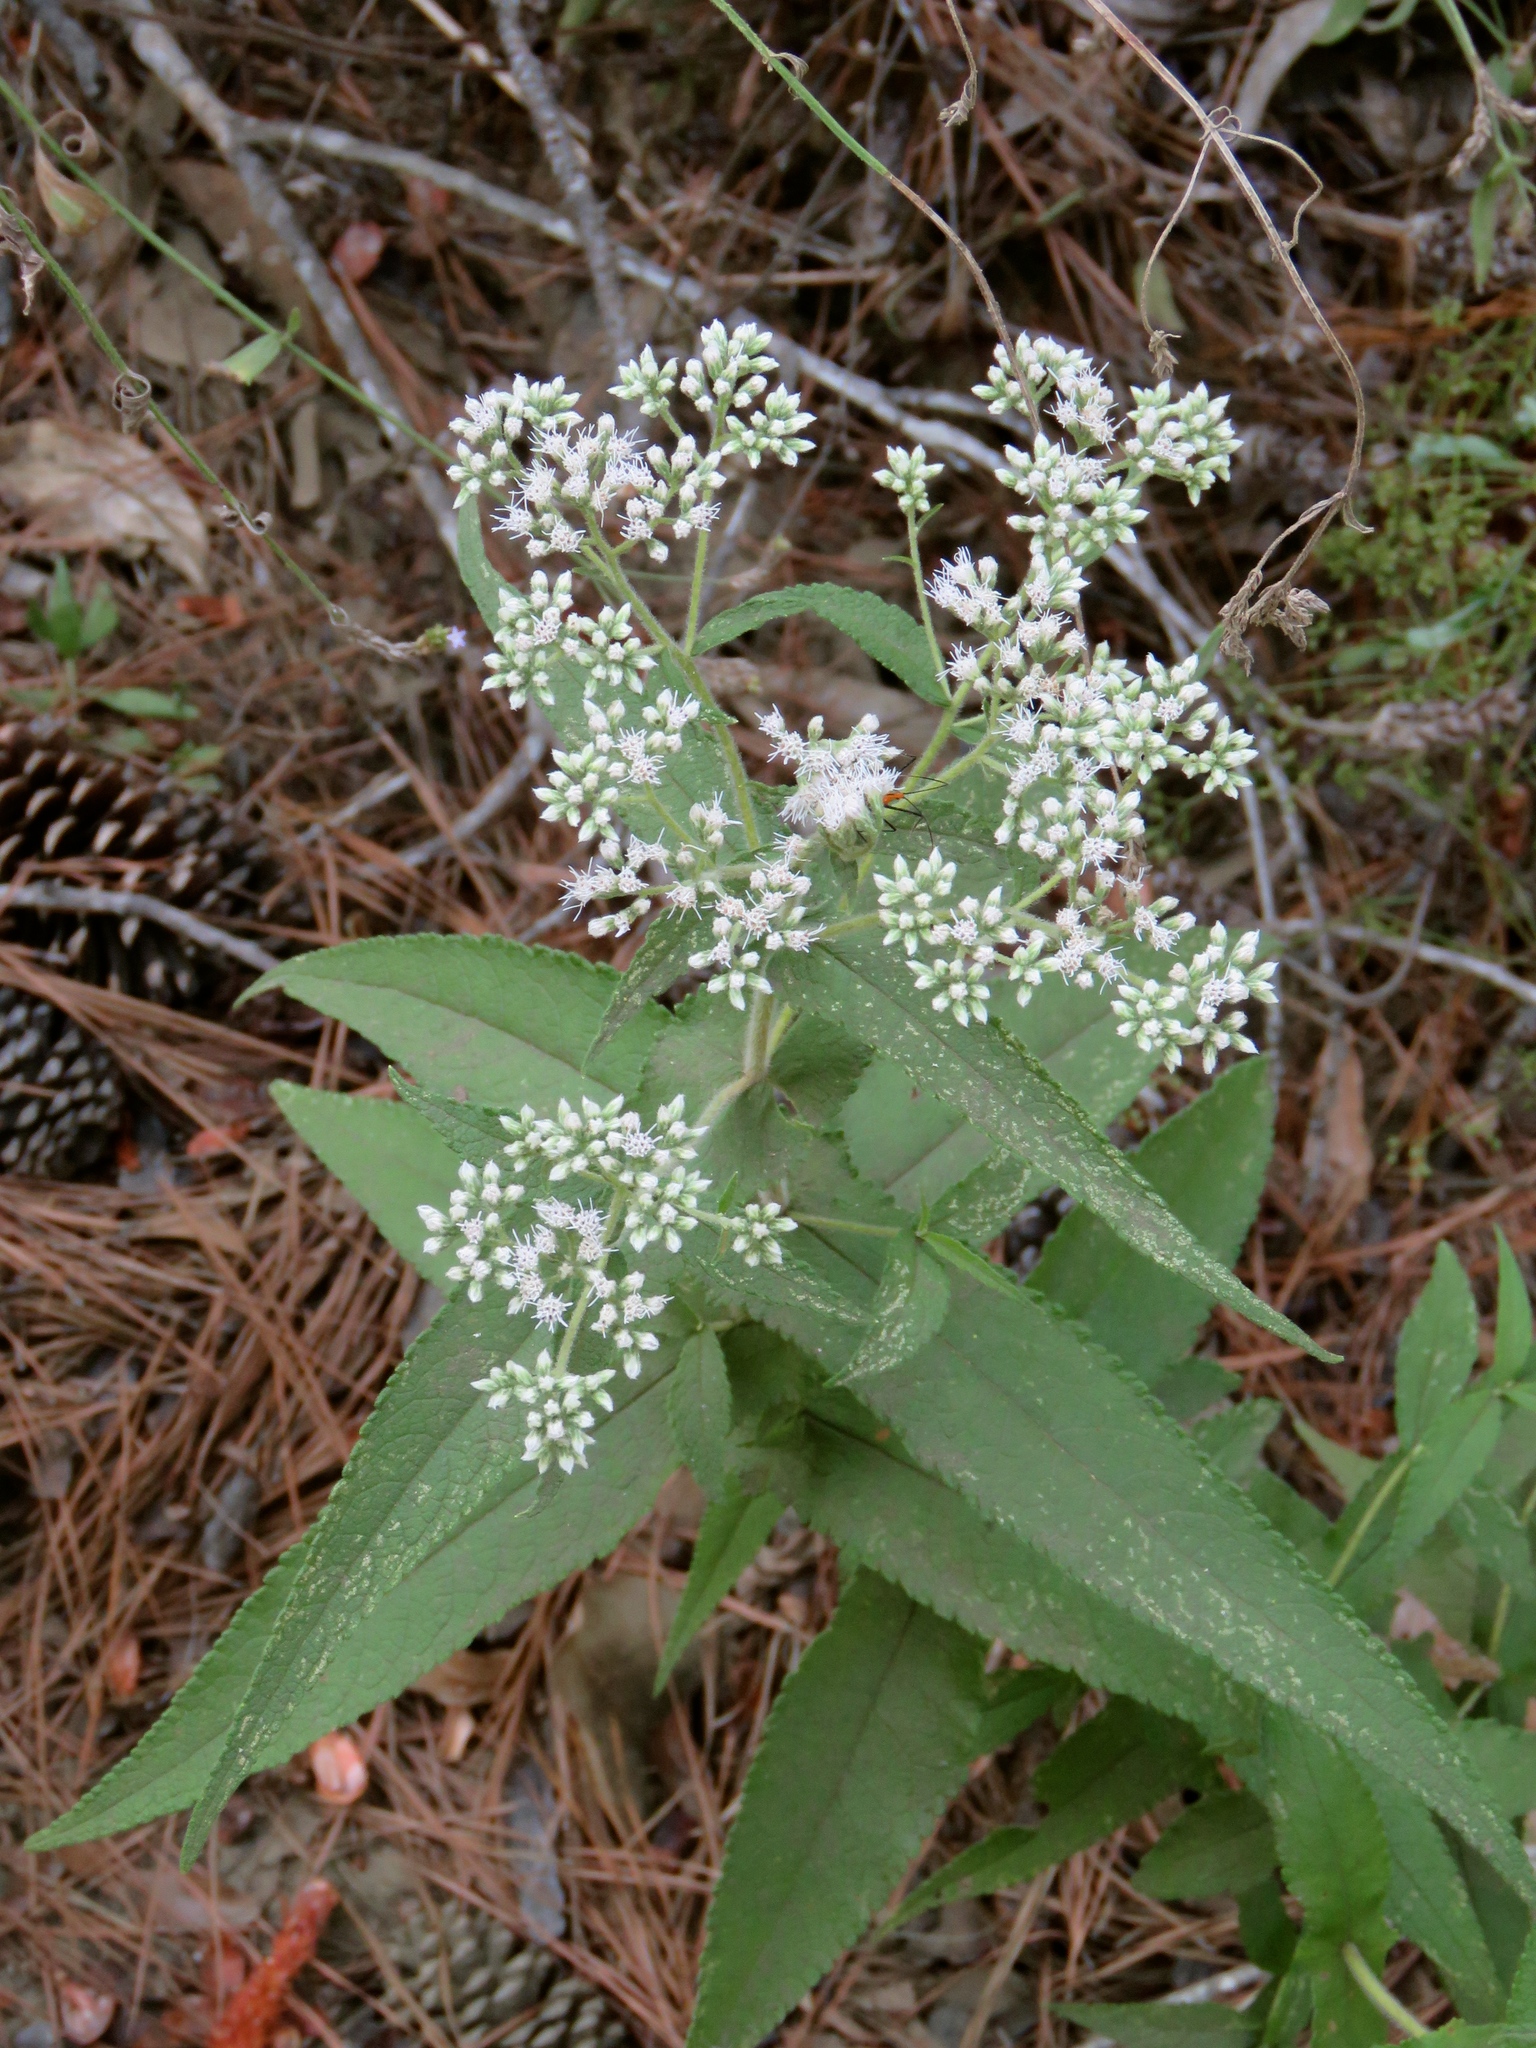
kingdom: Plantae
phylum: Tracheophyta
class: Magnoliopsida
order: Asterales
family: Asteraceae
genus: Eupatorium
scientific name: Eupatorium perfoliatum
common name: Boneset
